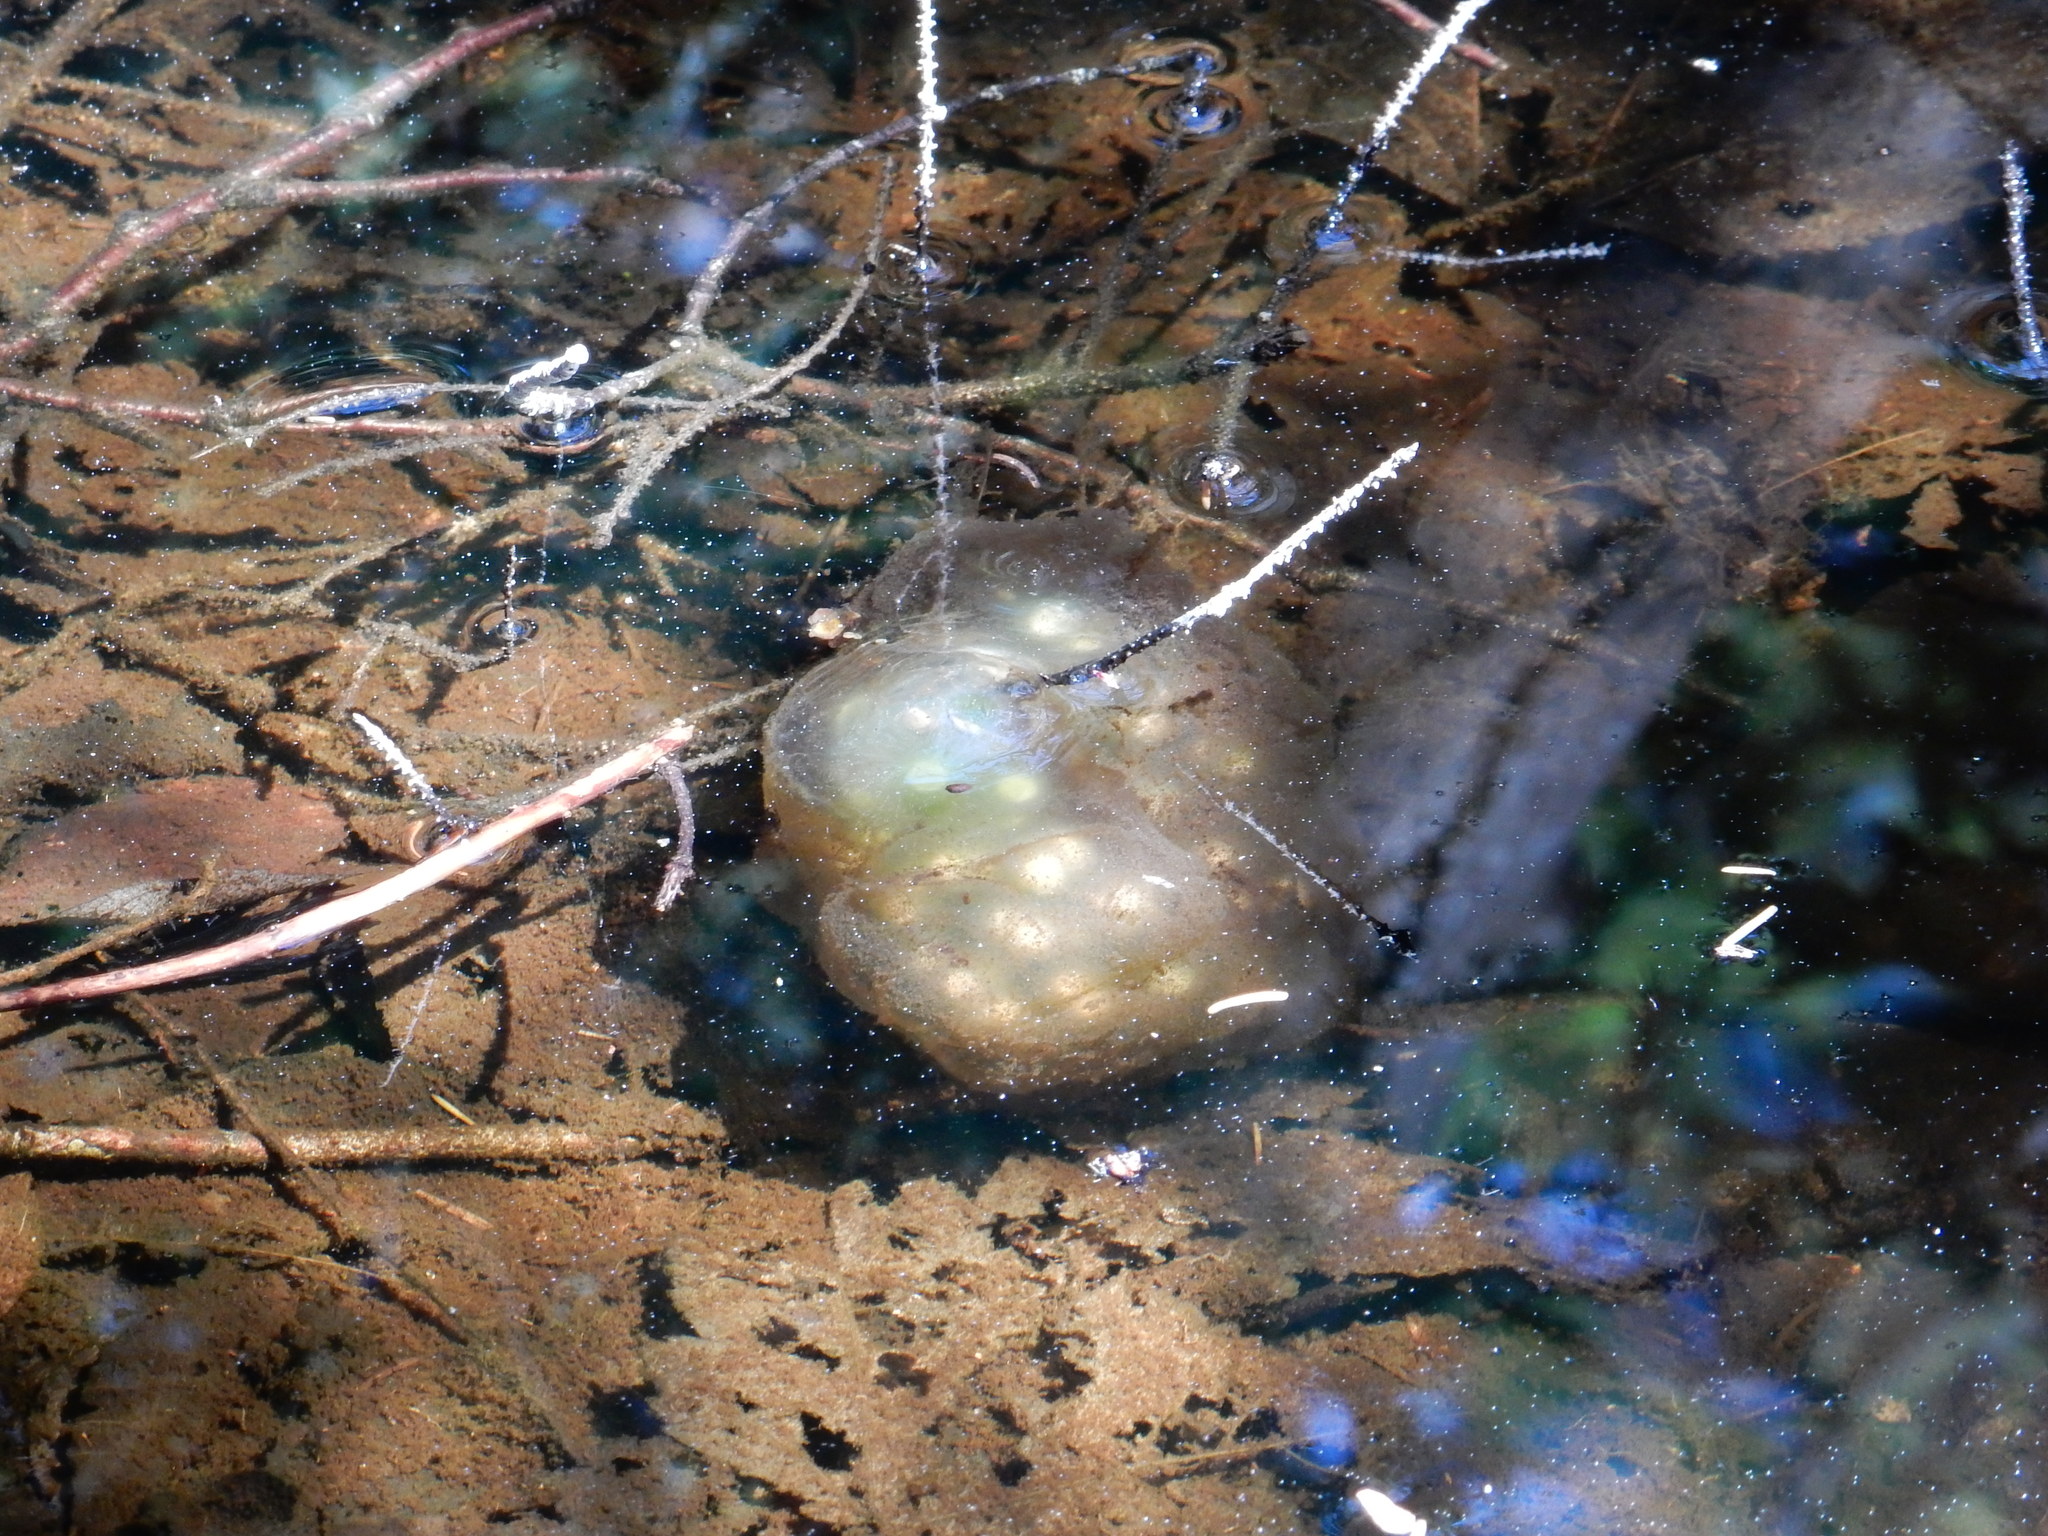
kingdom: Animalia
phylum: Chordata
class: Amphibia
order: Caudata
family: Ambystomatidae
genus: Ambystoma
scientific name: Ambystoma maculatum
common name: Spotted salamander
